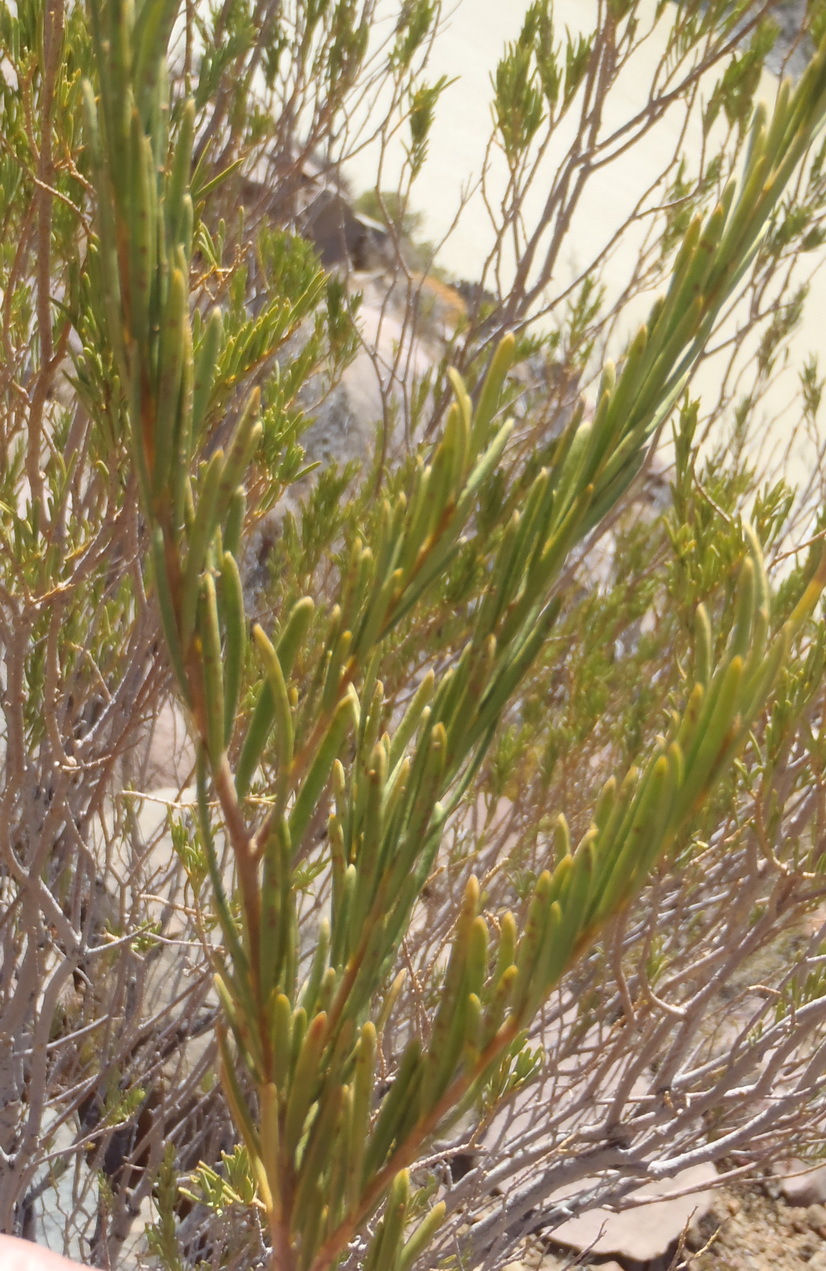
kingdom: Plantae
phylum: Tracheophyta
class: Magnoliopsida
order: Sapindales
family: Sapindaceae
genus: Dodonaea
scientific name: Dodonaea viscosa
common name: Hopbush
